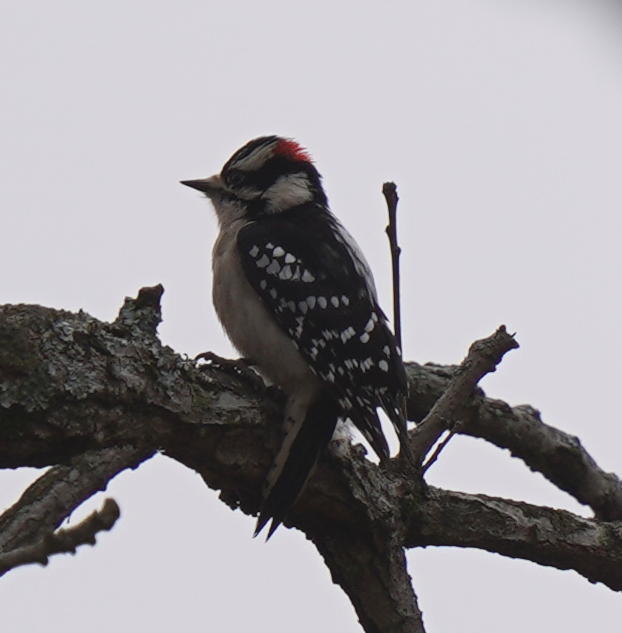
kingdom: Animalia
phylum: Chordata
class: Aves
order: Piciformes
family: Picidae
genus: Dryobates
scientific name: Dryobates pubescens
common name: Downy woodpecker
